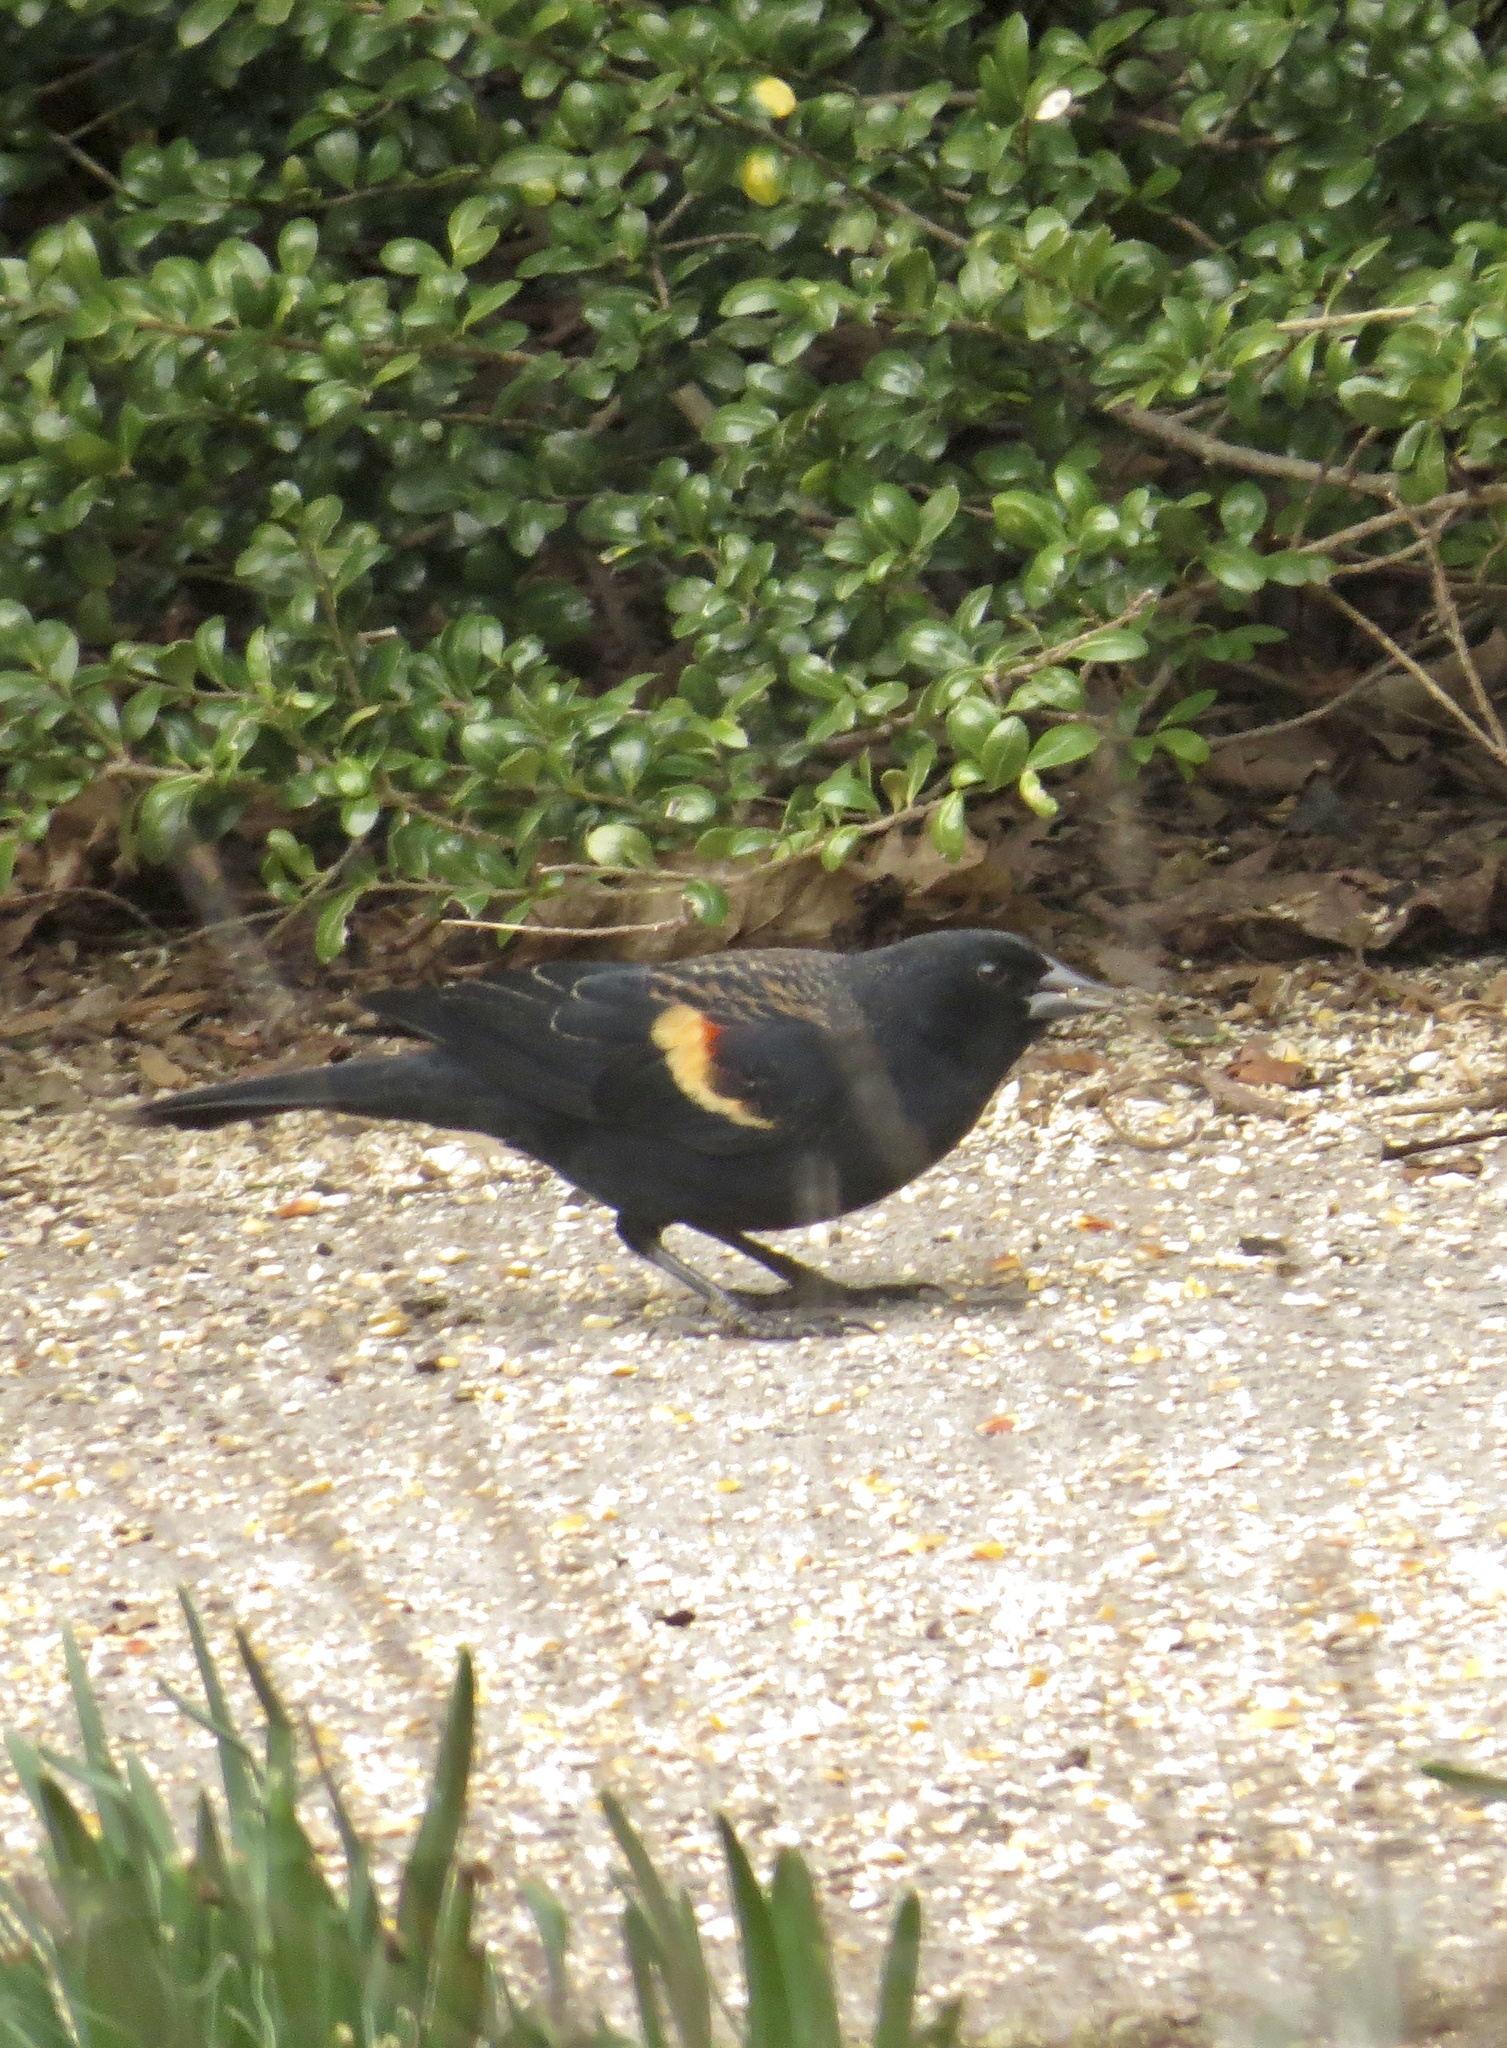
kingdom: Animalia
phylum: Chordata
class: Aves
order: Passeriformes
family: Icteridae
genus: Agelaius
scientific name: Agelaius phoeniceus
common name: Red-winged blackbird
